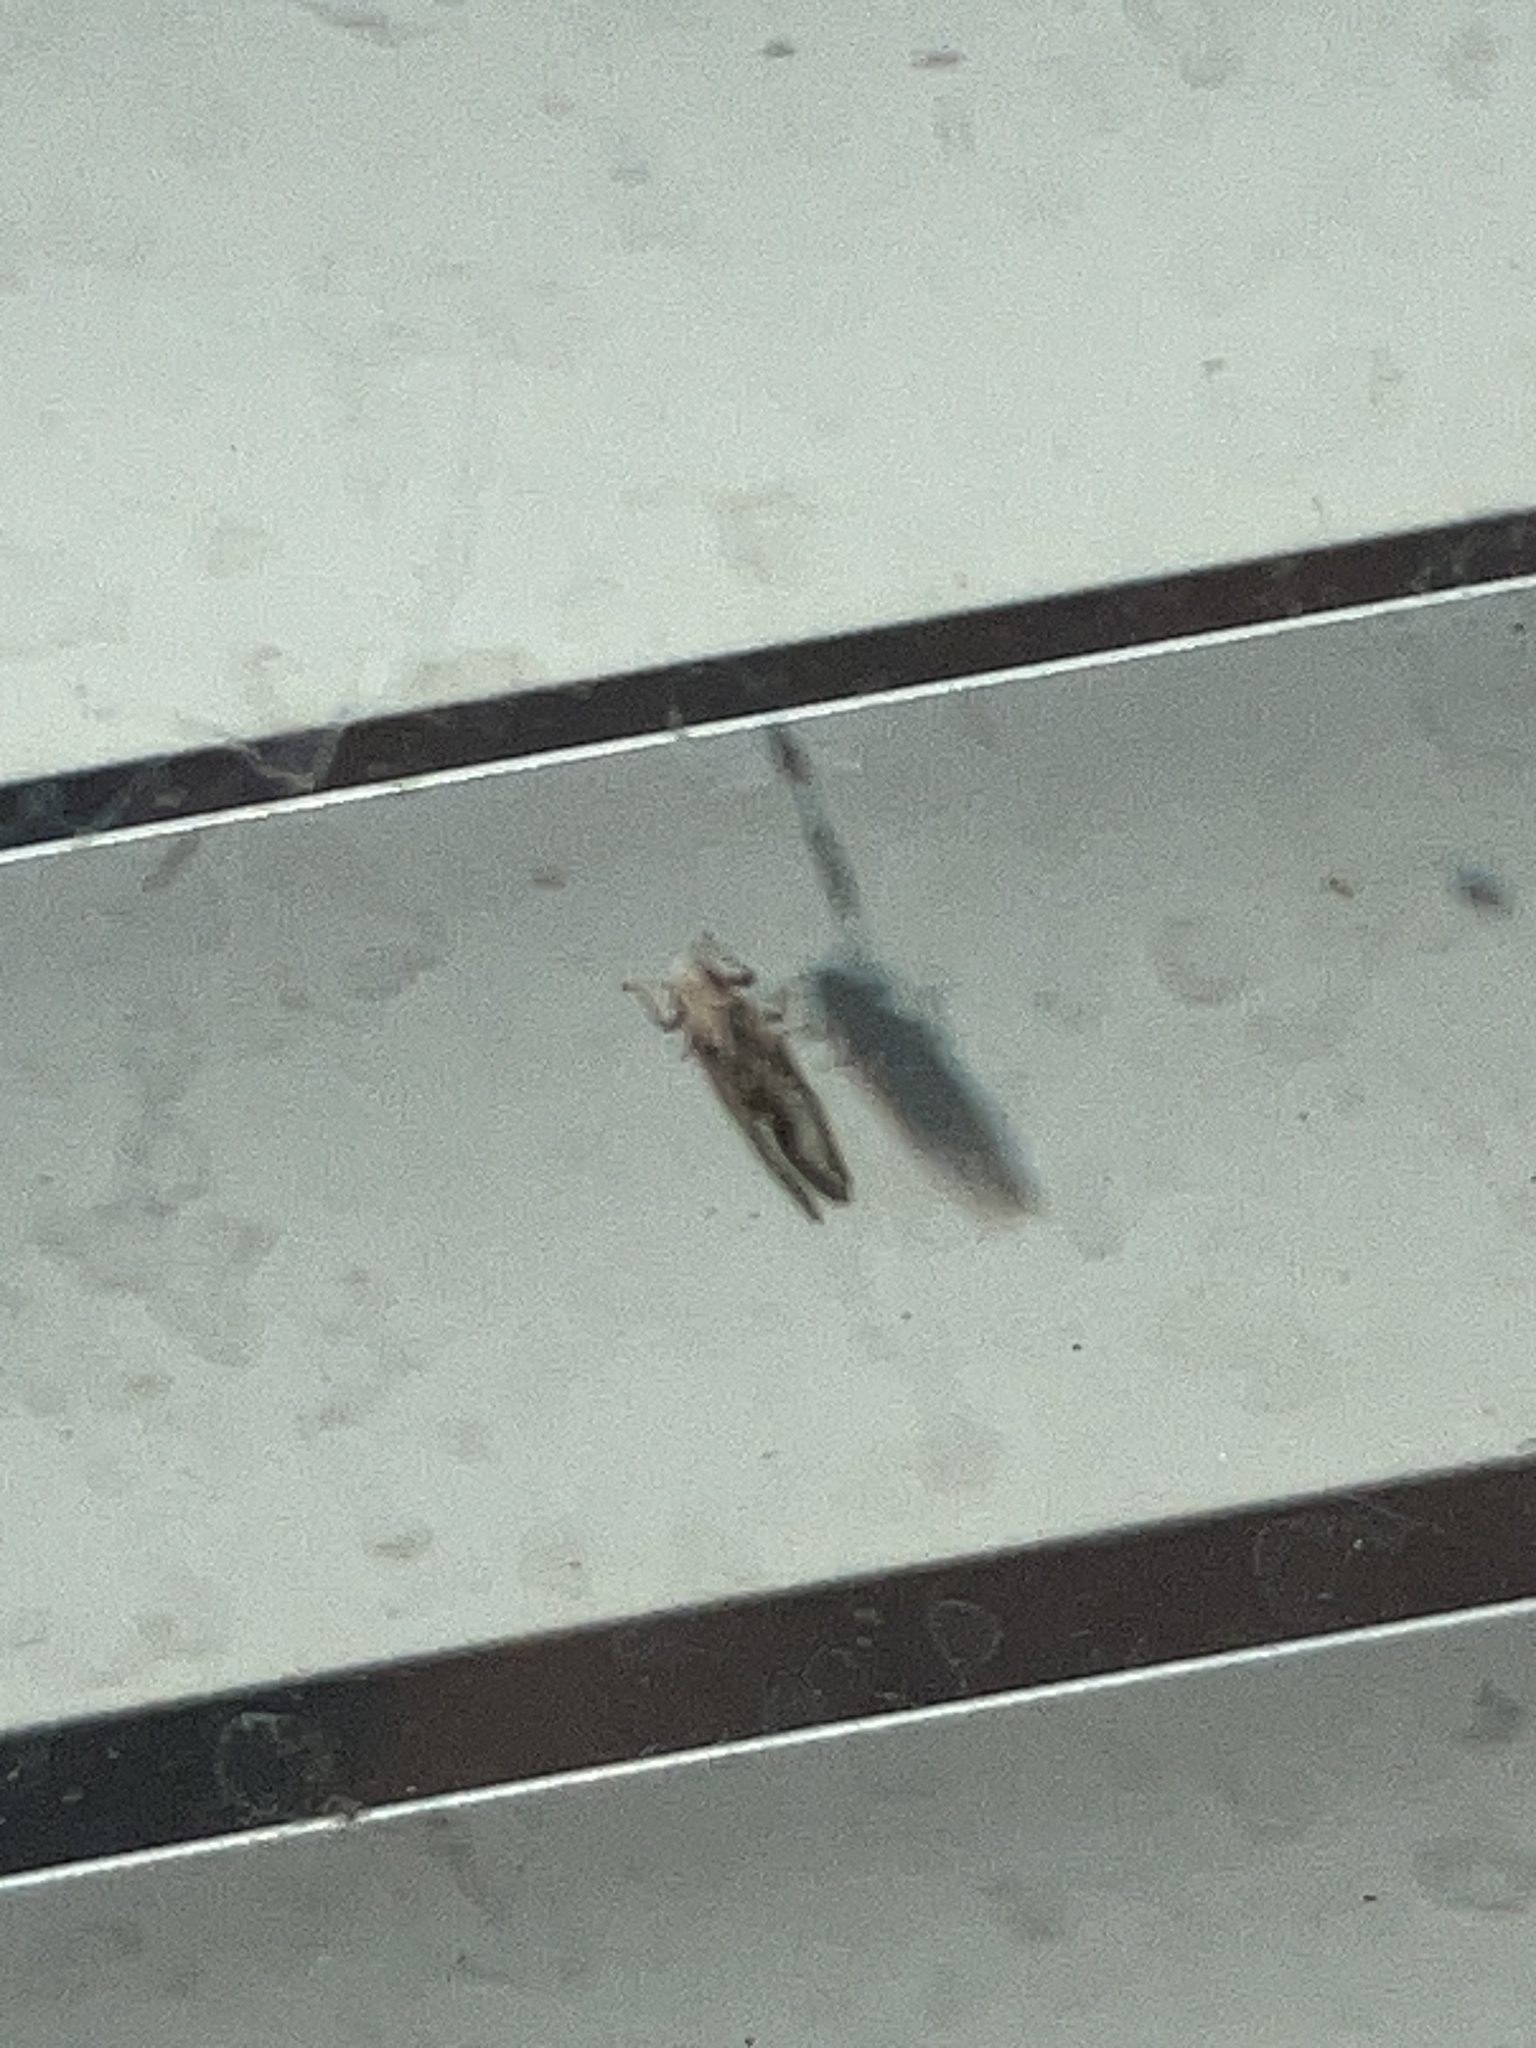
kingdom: Animalia
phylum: Arthropoda
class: Insecta
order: Hemiptera
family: Liviidae
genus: Diaphorina
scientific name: Diaphorina citri
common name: Asian citrus psyllid
